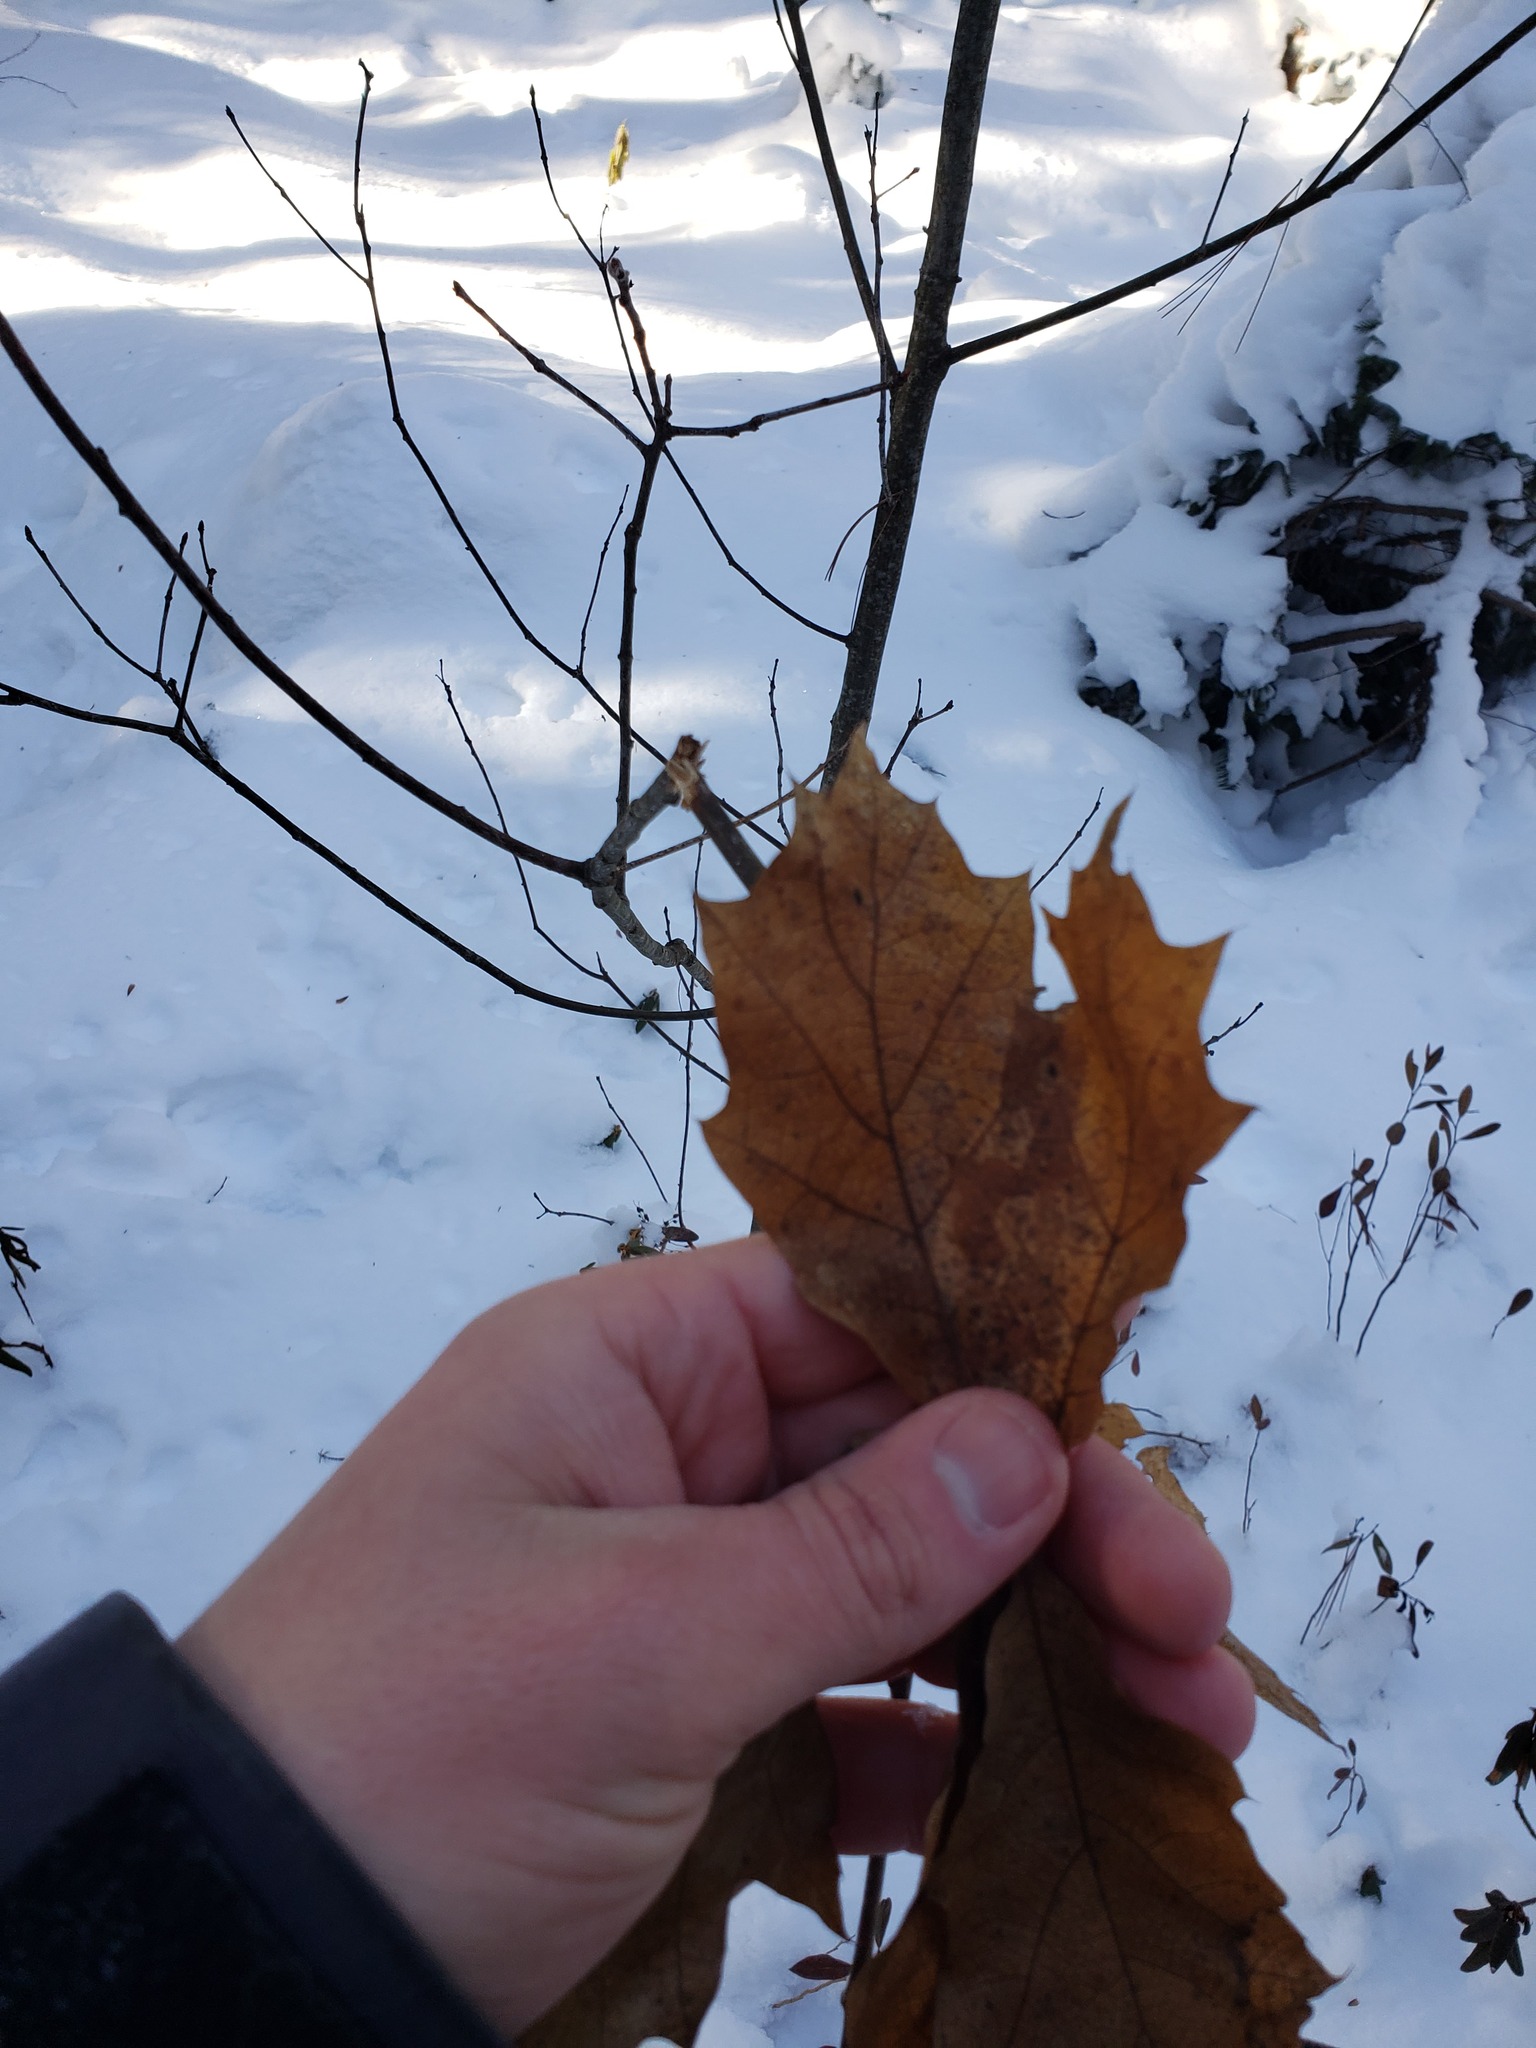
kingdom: Plantae
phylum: Tracheophyta
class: Magnoliopsida
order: Fagales
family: Fagaceae
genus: Quercus
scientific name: Quercus rubra
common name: Red oak
